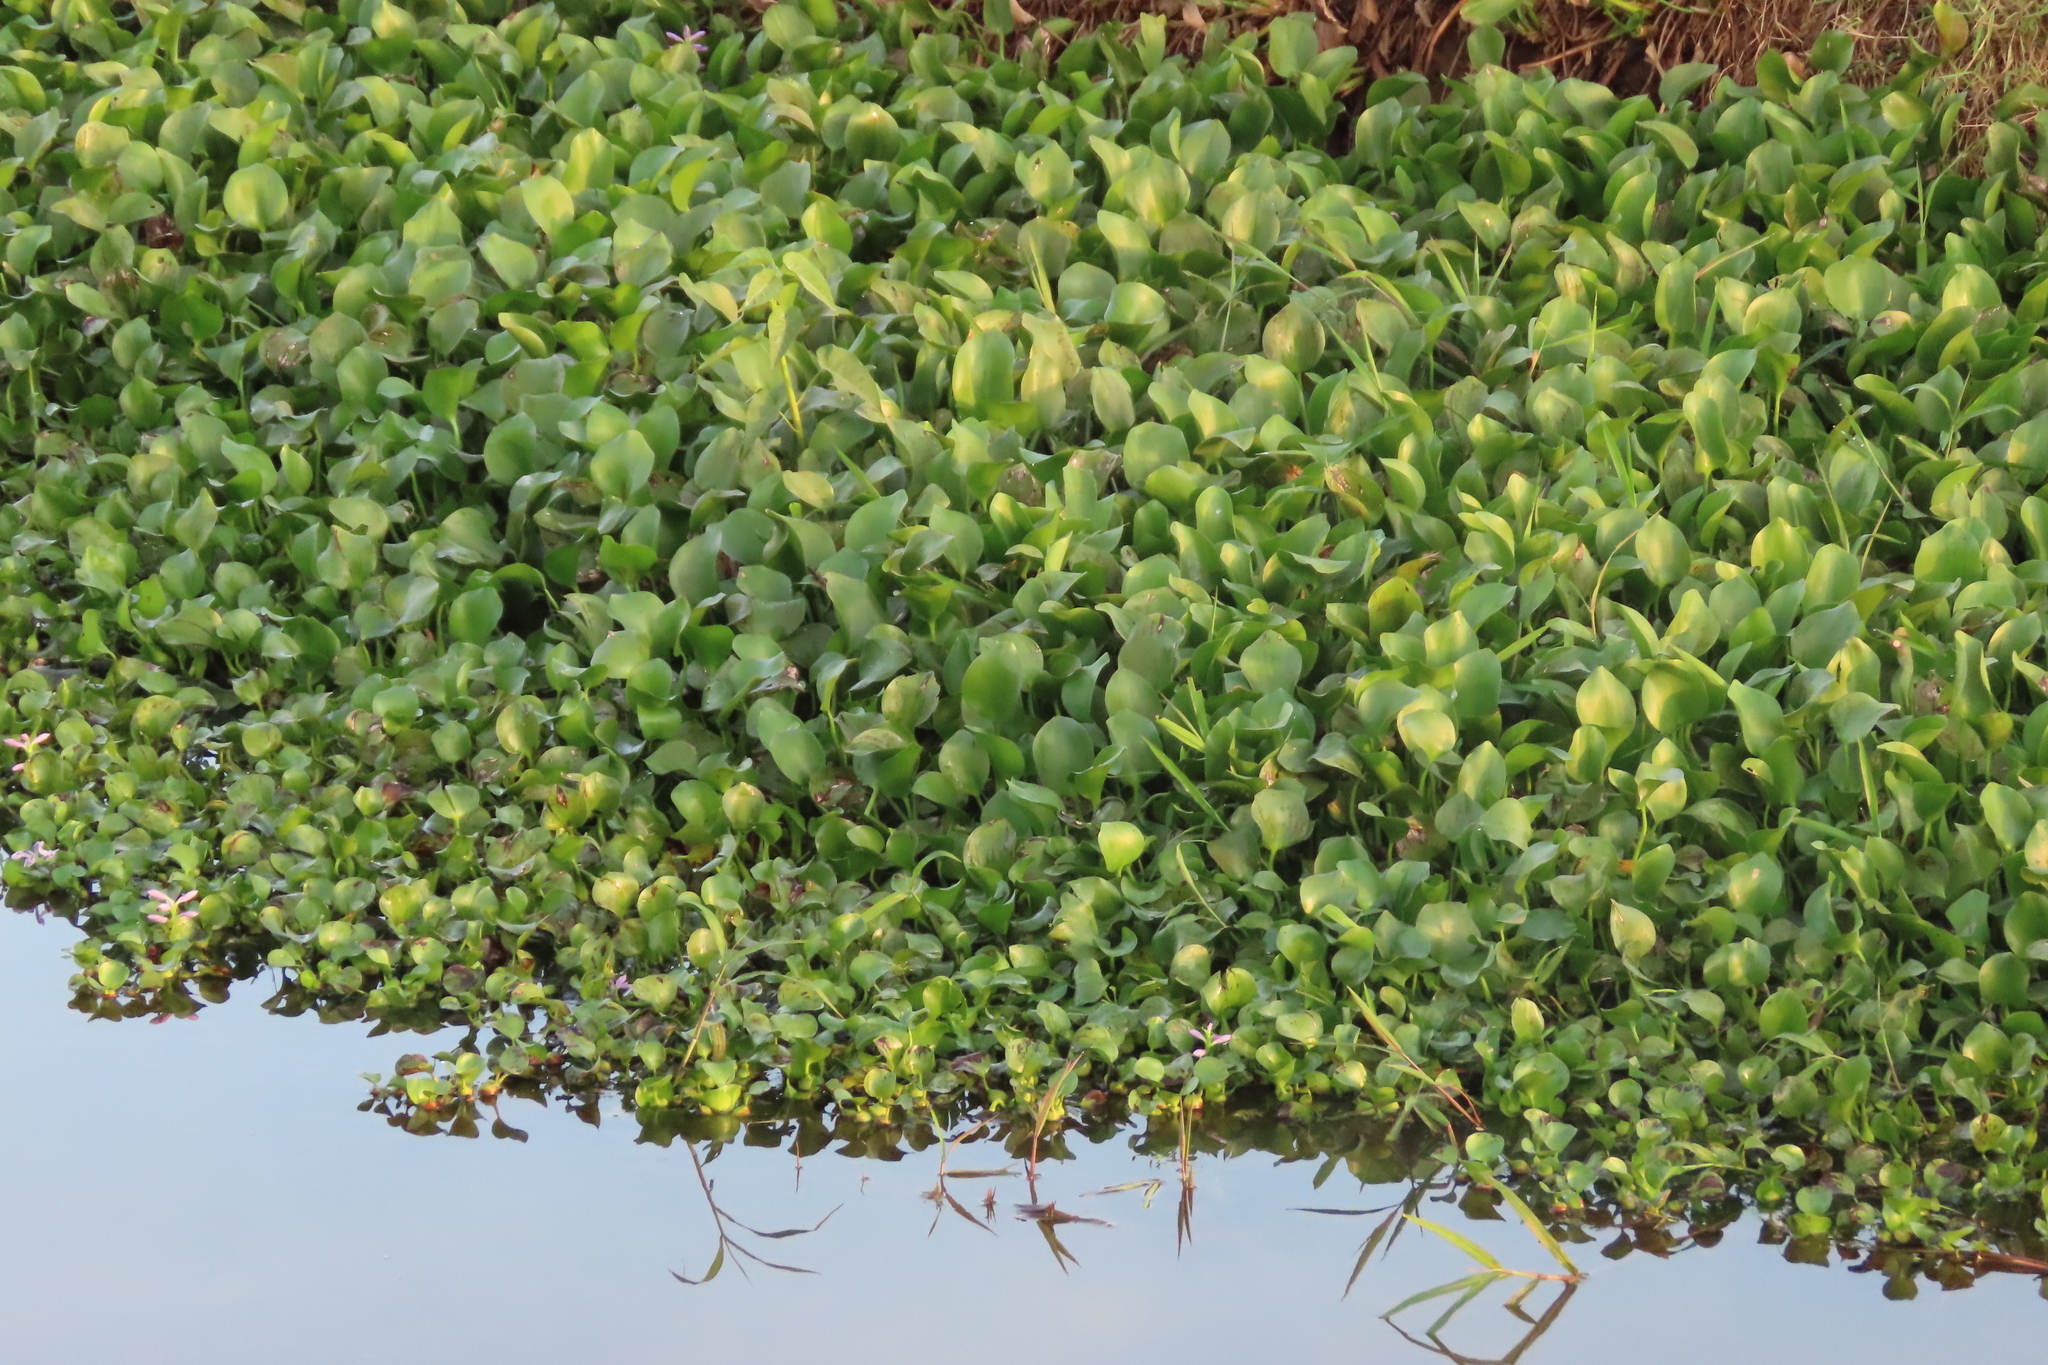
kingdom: Plantae
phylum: Tracheophyta
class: Liliopsida
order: Commelinales
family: Pontederiaceae
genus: Pontederia
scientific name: Pontederia crassipes
